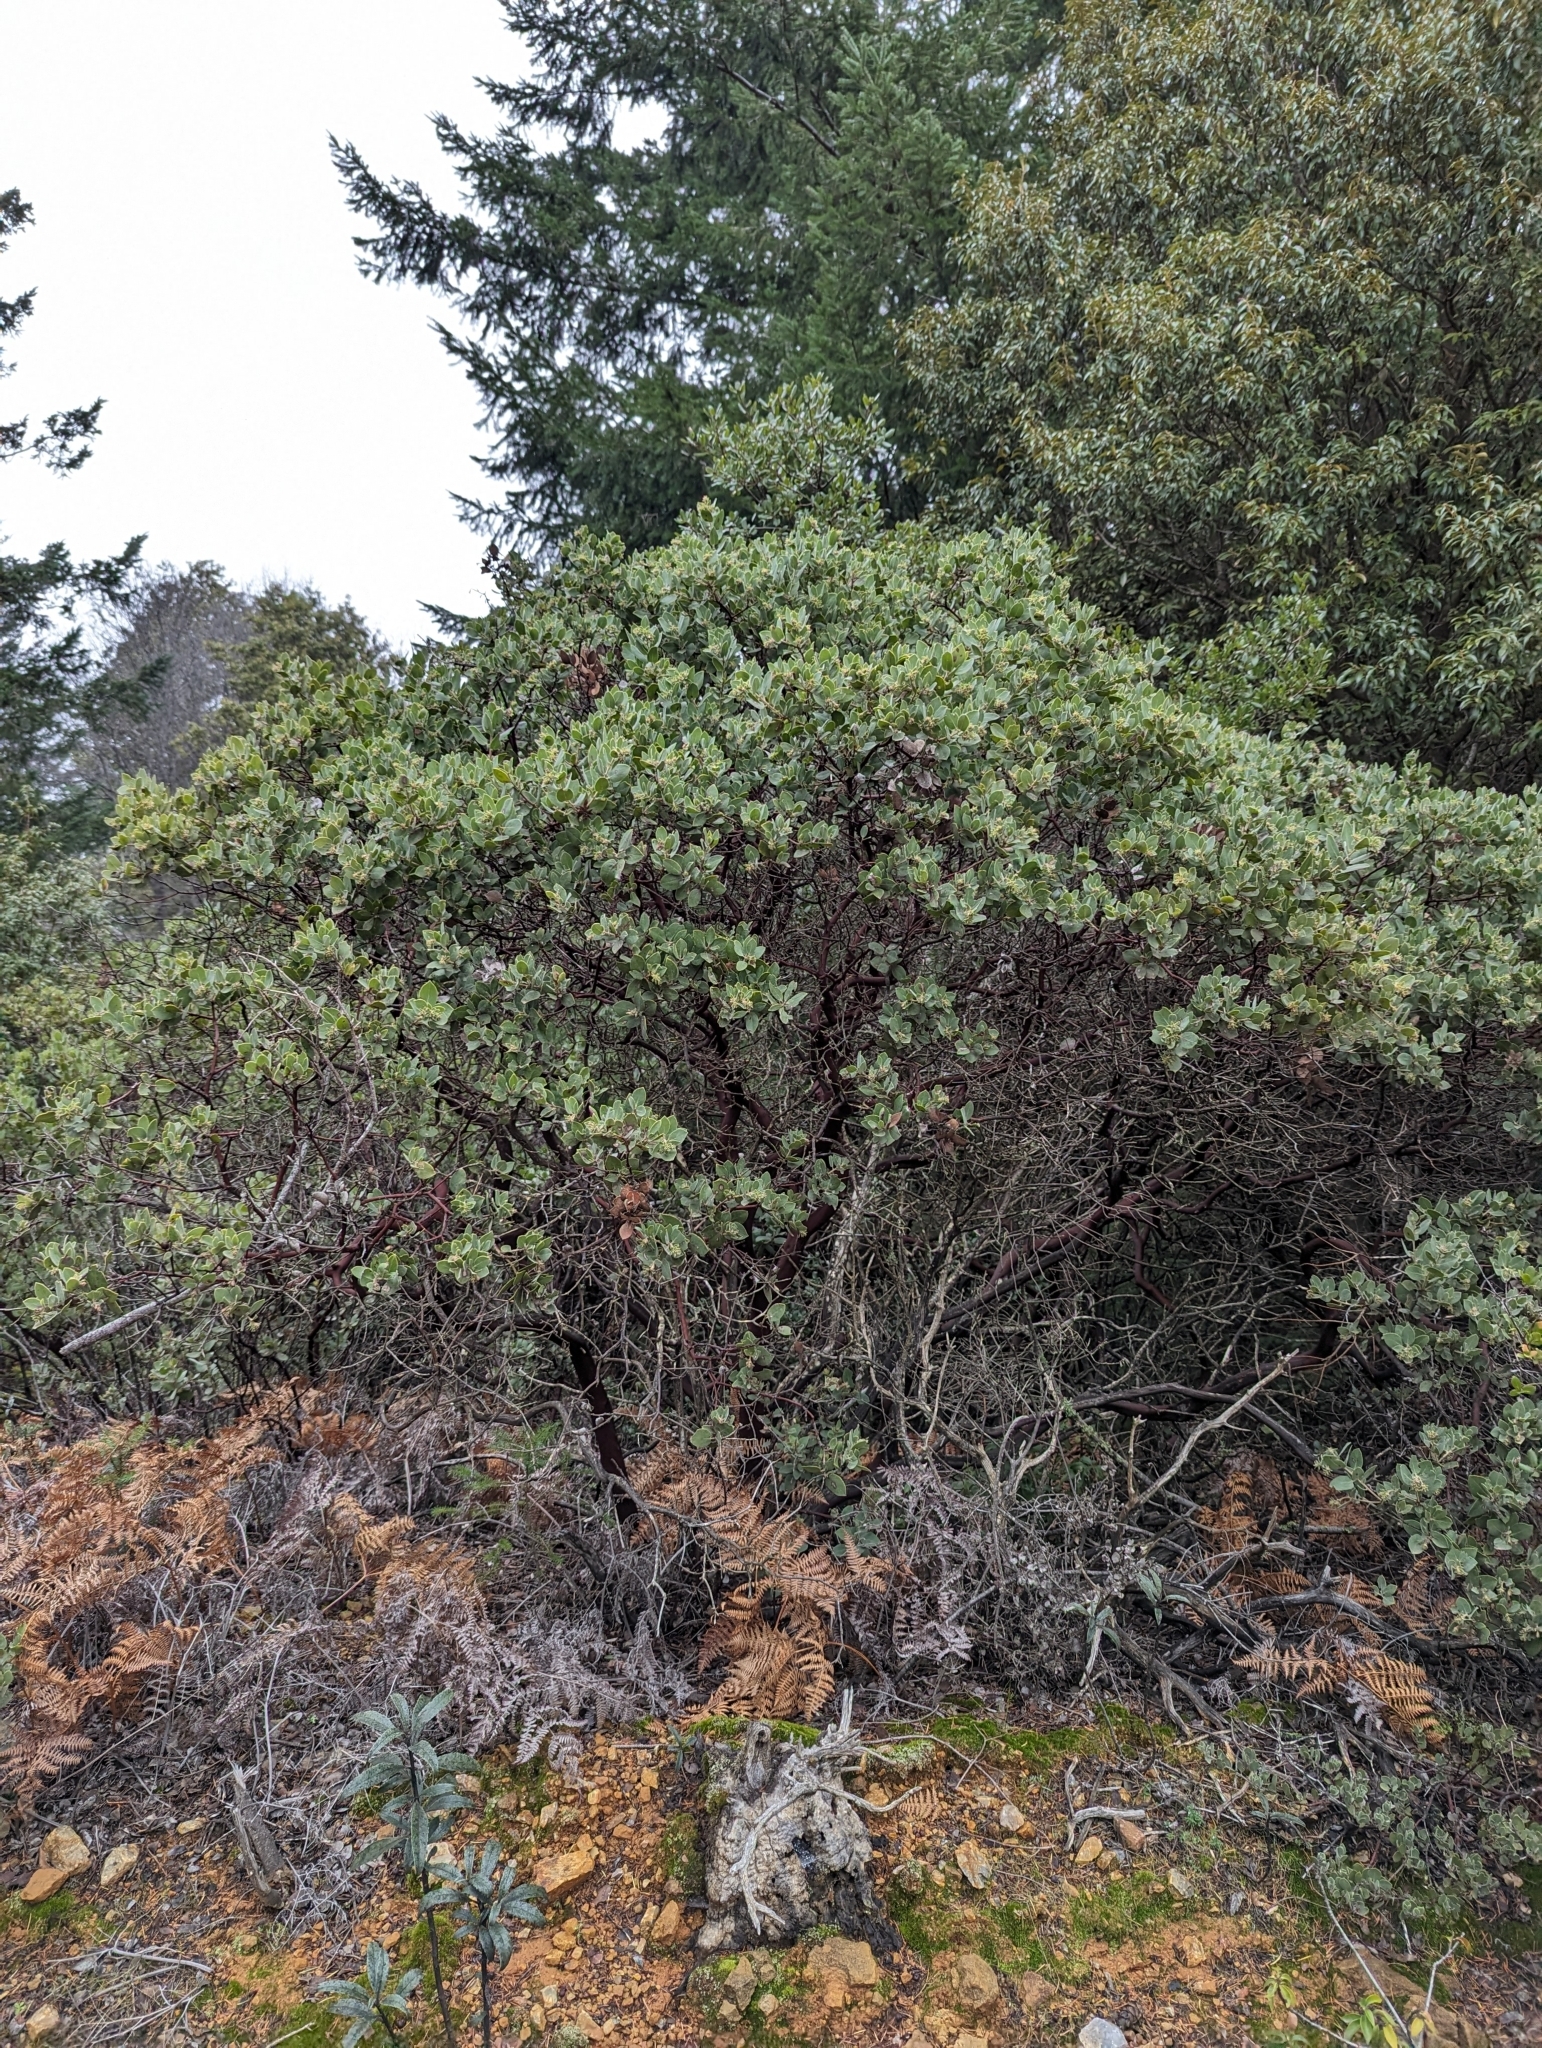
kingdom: Plantae
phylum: Tracheophyta
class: Magnoliopsida
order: Ericales
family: Ericaceae
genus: Arctostaphylos
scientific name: Arctostaphylos glandulosa
